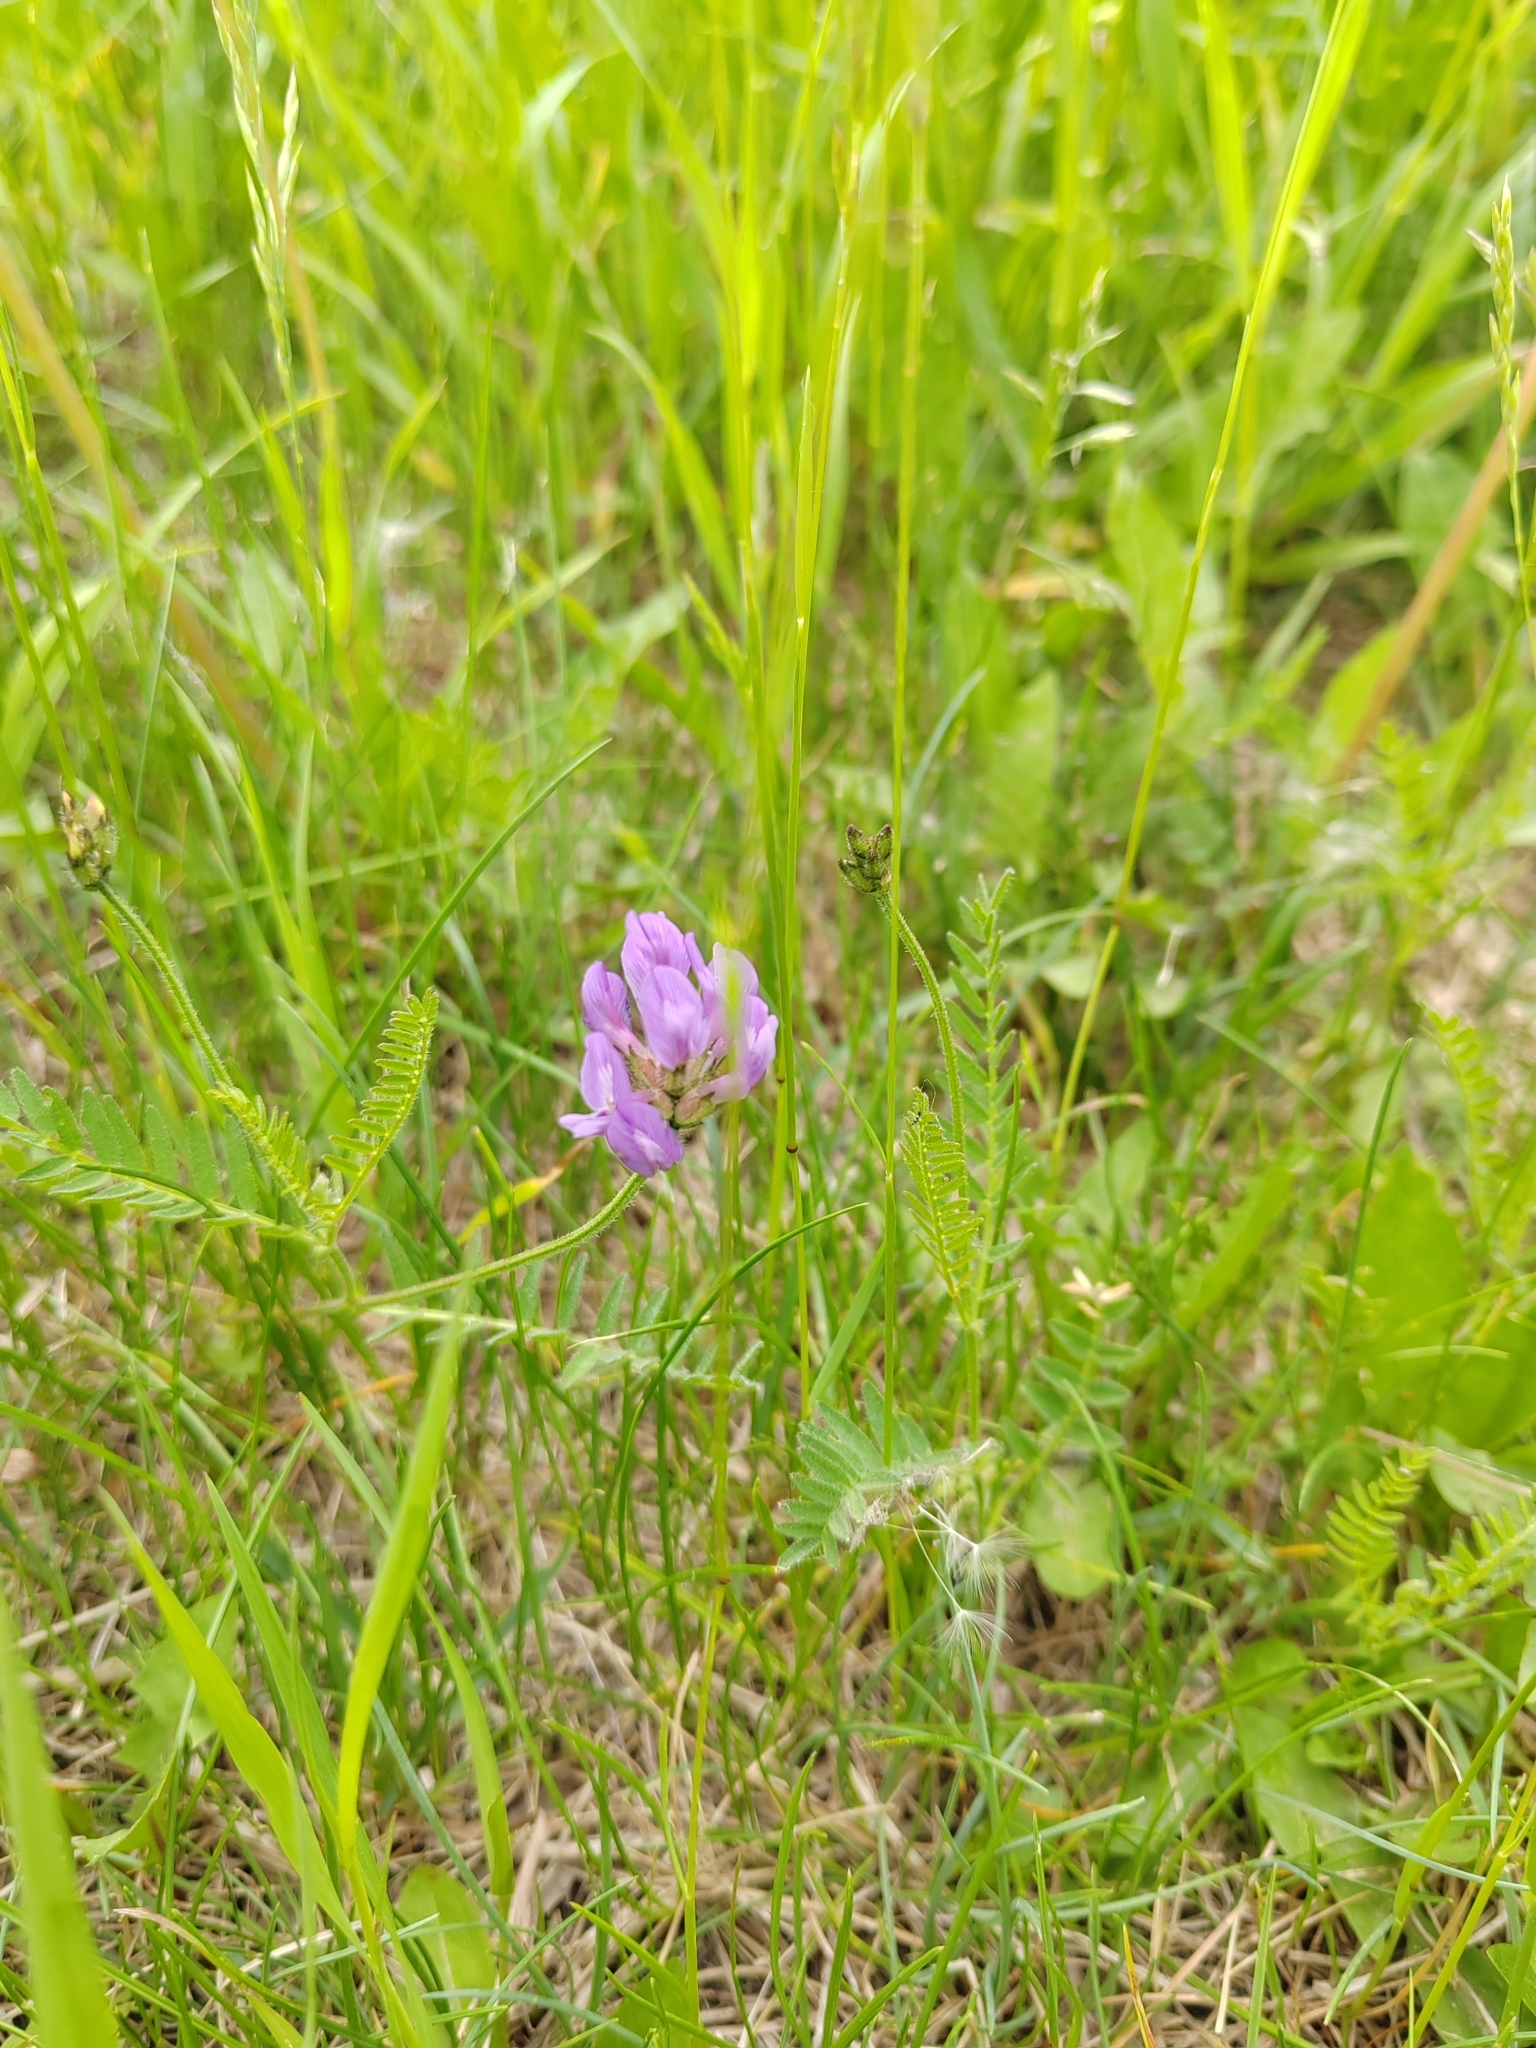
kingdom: Plantae
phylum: Tracheophyta
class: Magnoliopsida
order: Fabales
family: Fabaceae
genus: Astragalus
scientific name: Astragalus danicus
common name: Purple milk-vetch
